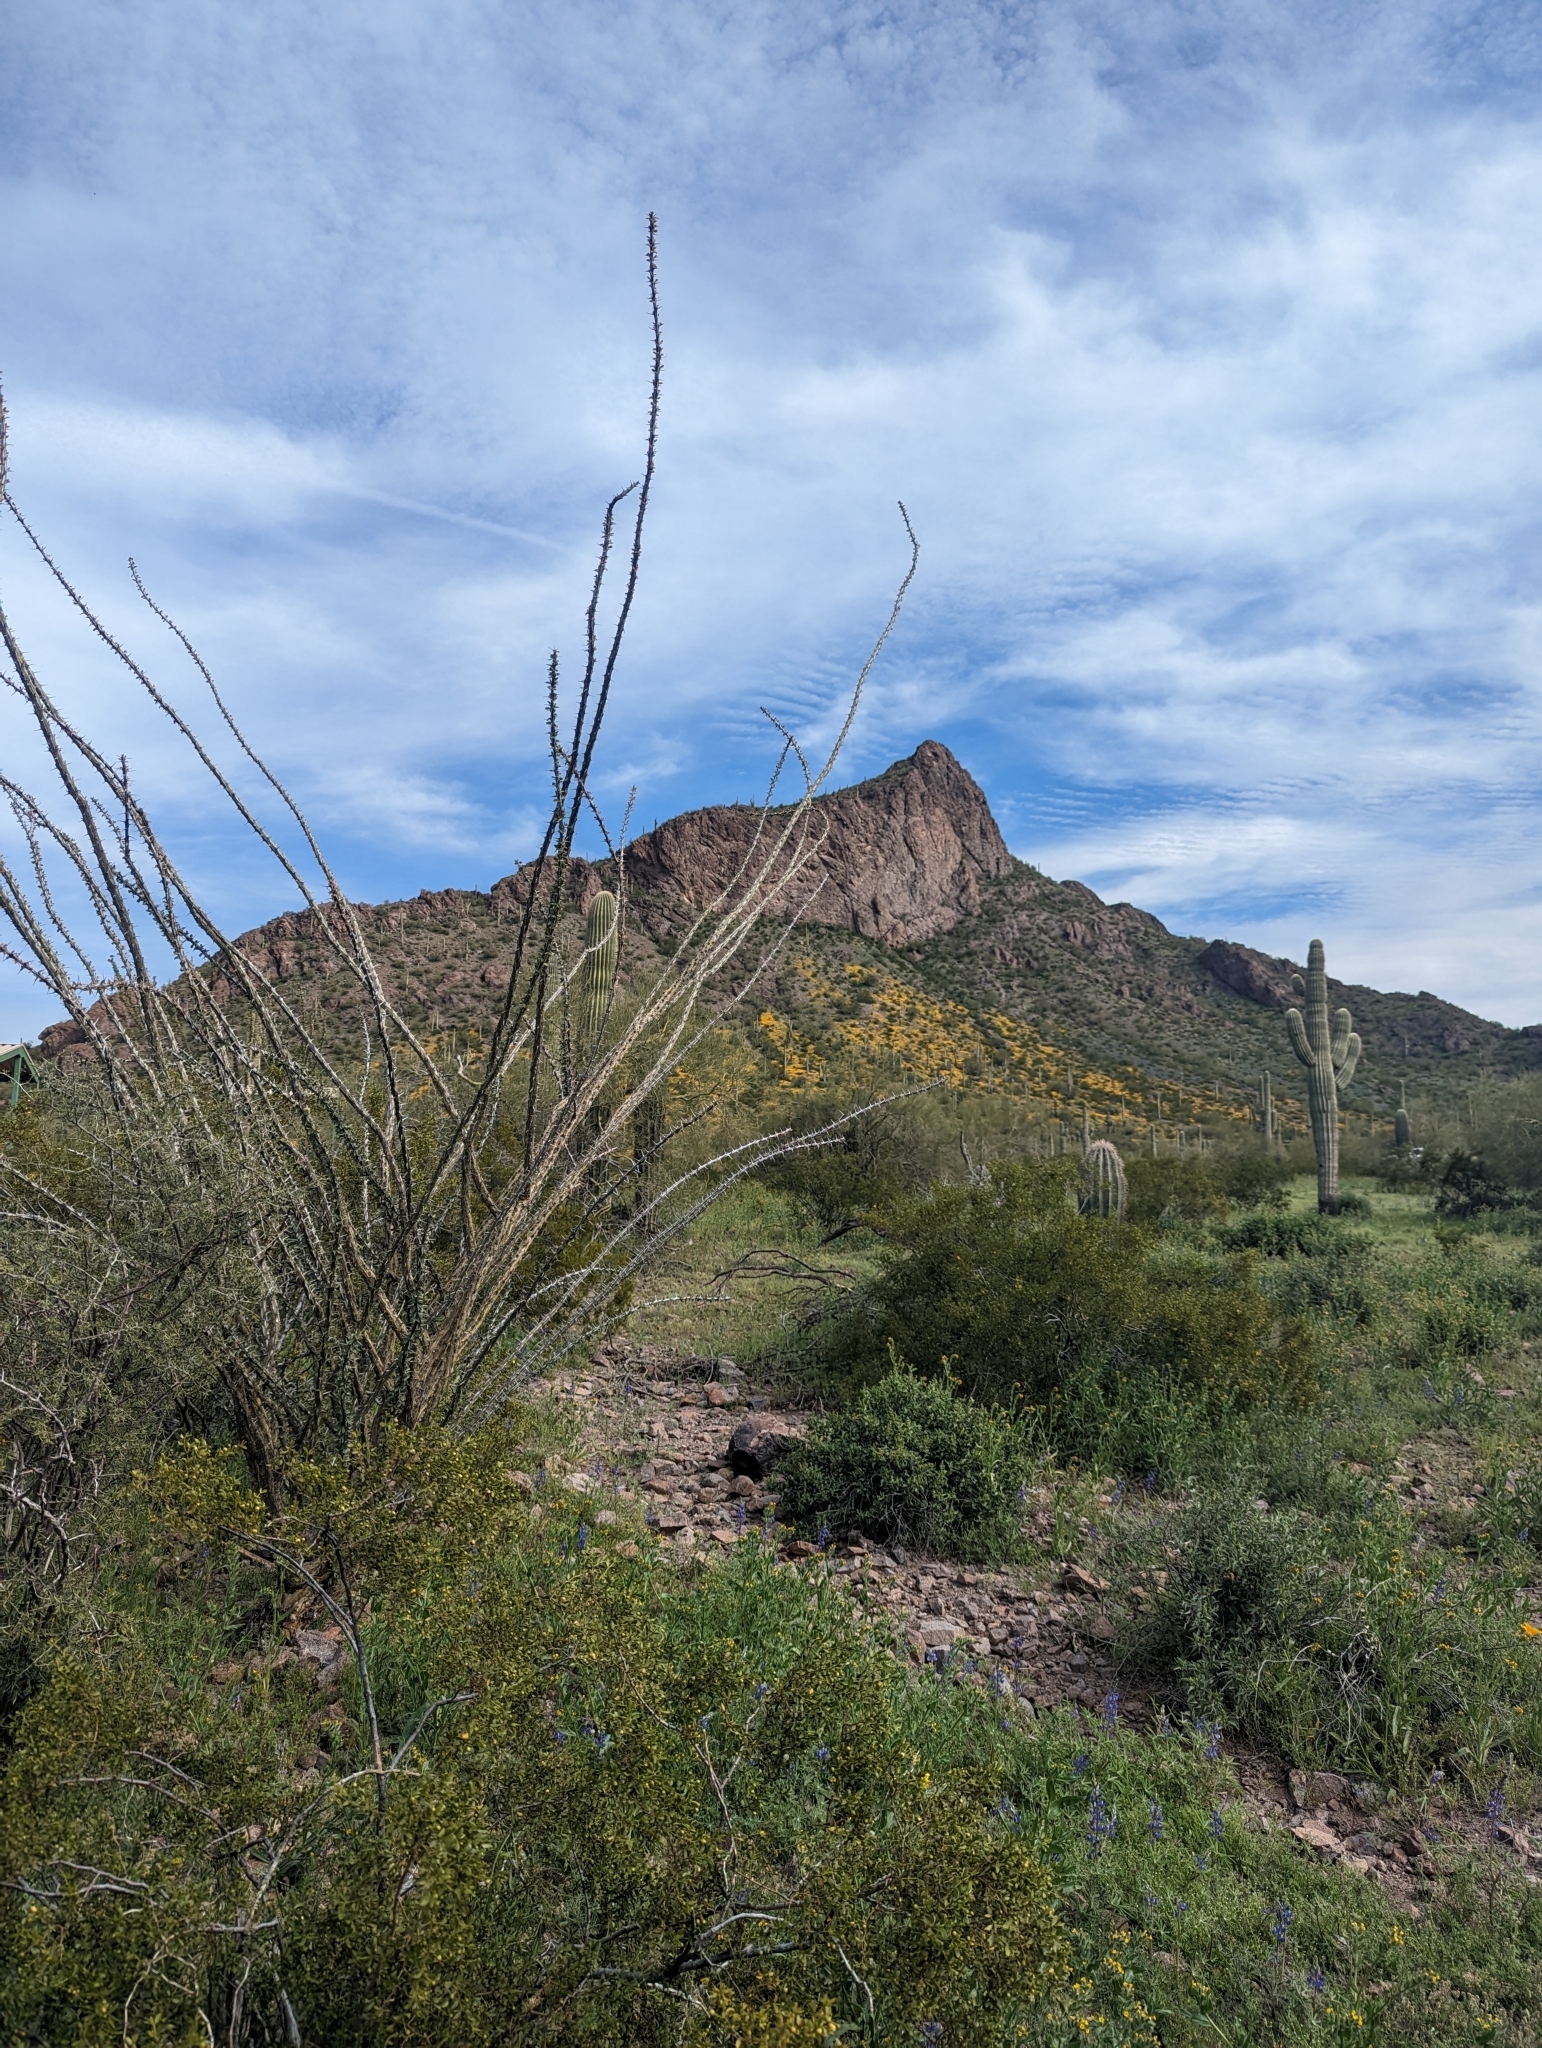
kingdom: Plantae
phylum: Tracheophyta
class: Magnoliopsida
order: Ericales
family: Fouquieriaceae
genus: Fouquieria
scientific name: Fouquieria splendens
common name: Vine-cactus
